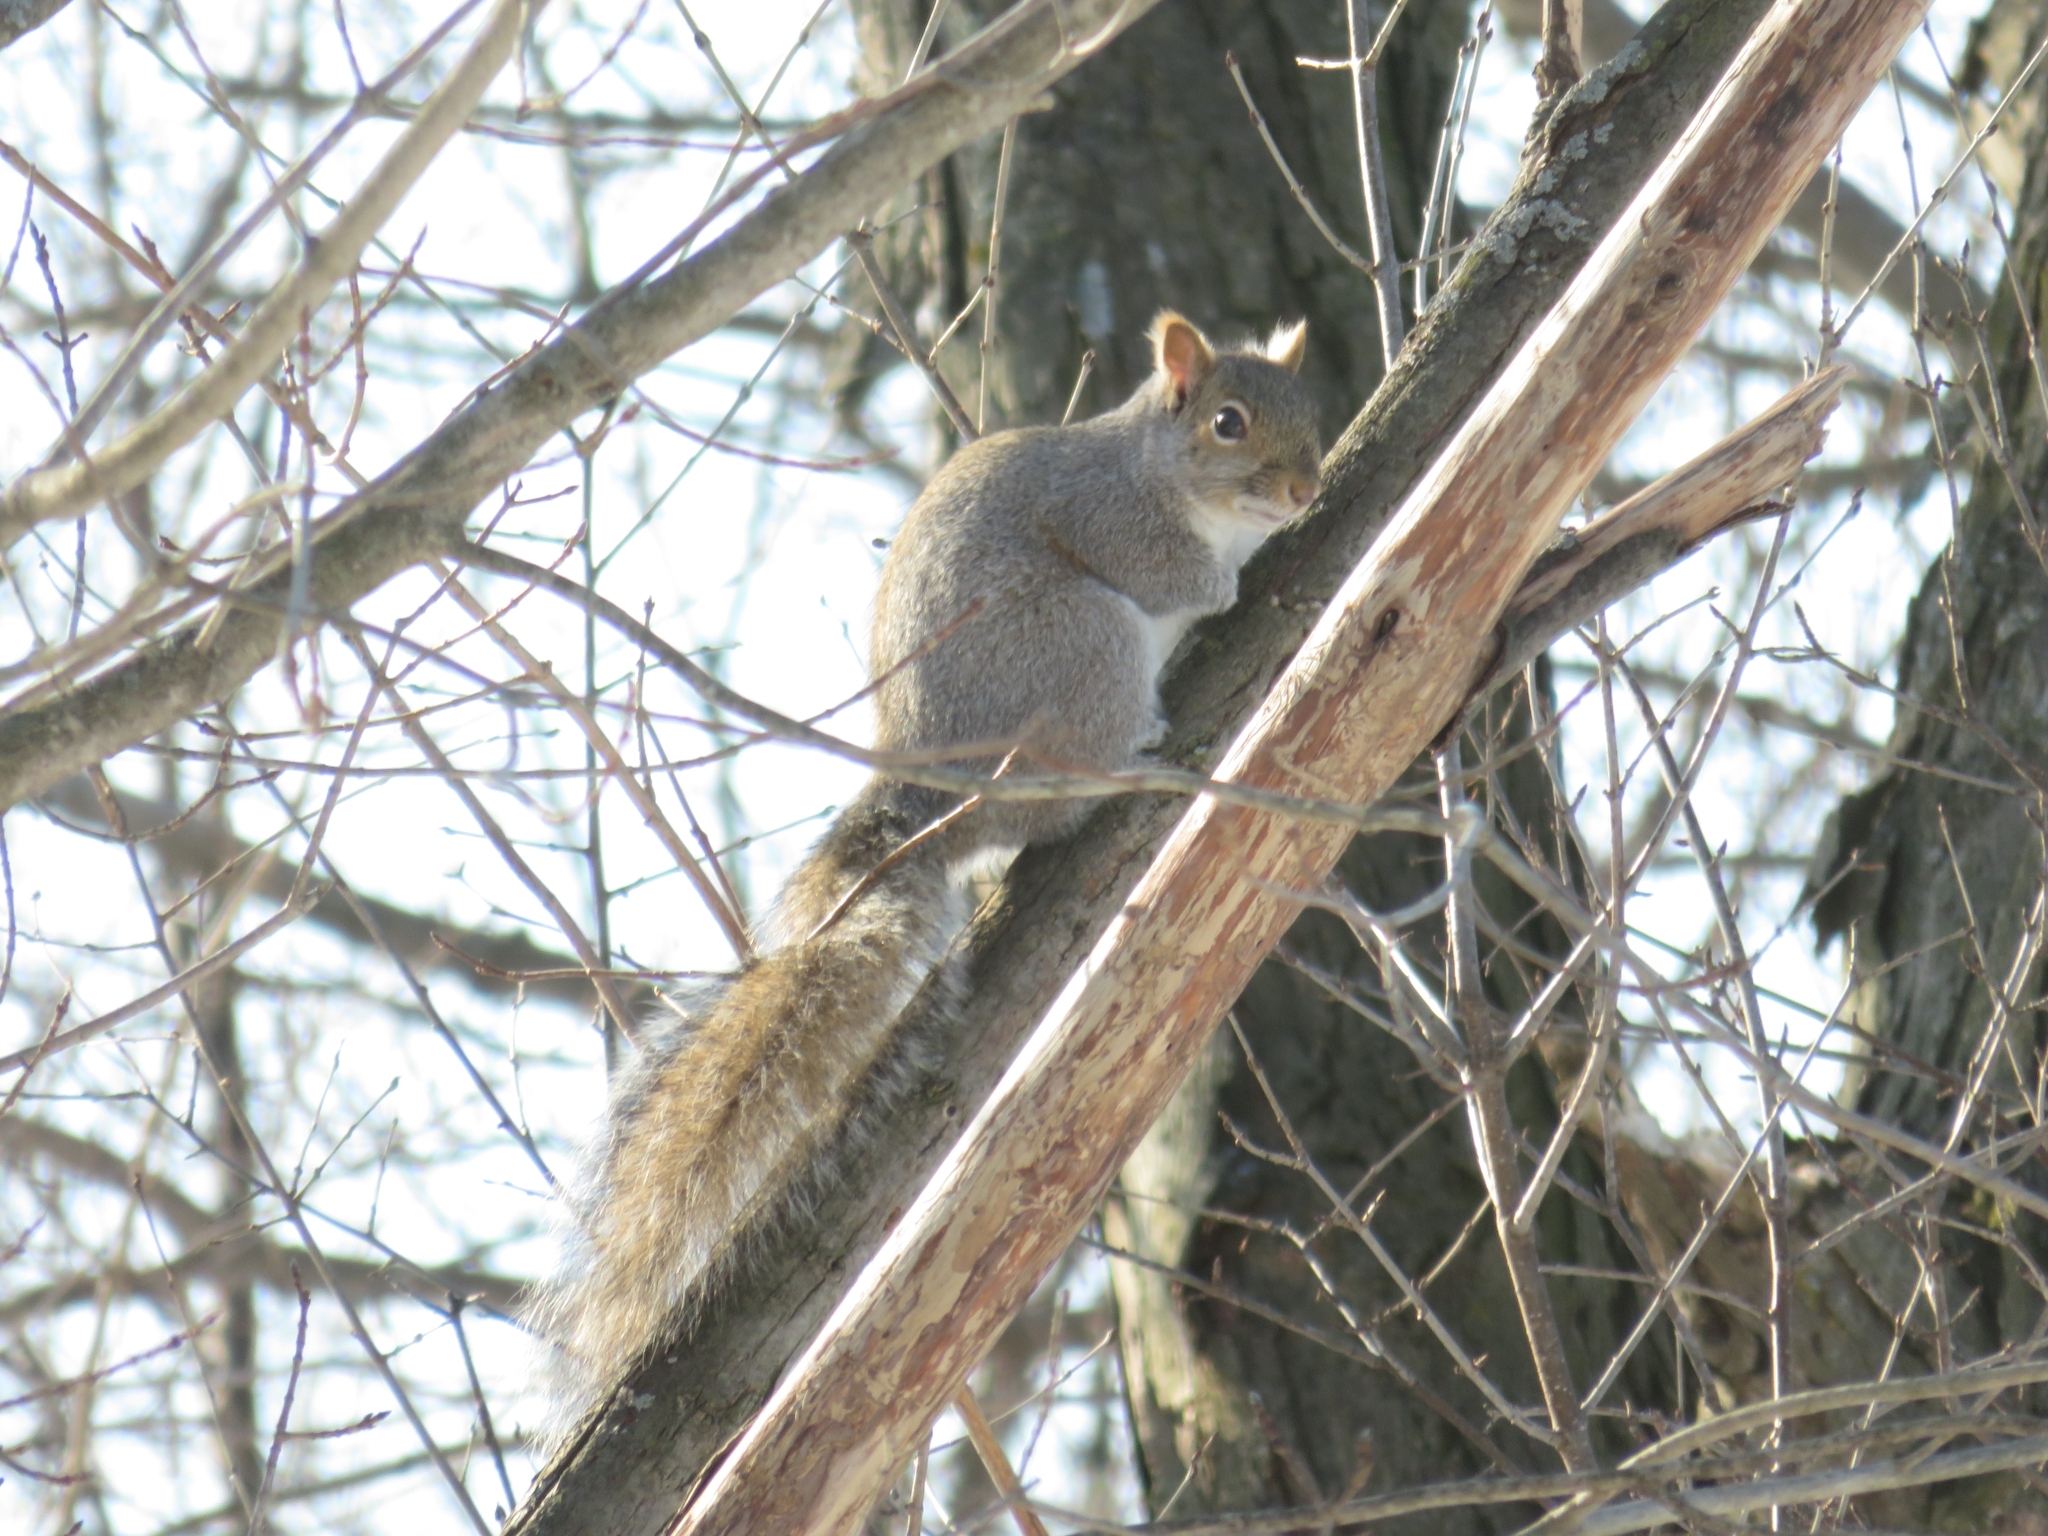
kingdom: Animalia
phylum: Chordata
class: Mammalia
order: Rodentia
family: Sciuridae
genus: Sciurus
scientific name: Sciurus carolinensis
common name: Eastern gray squirrel
